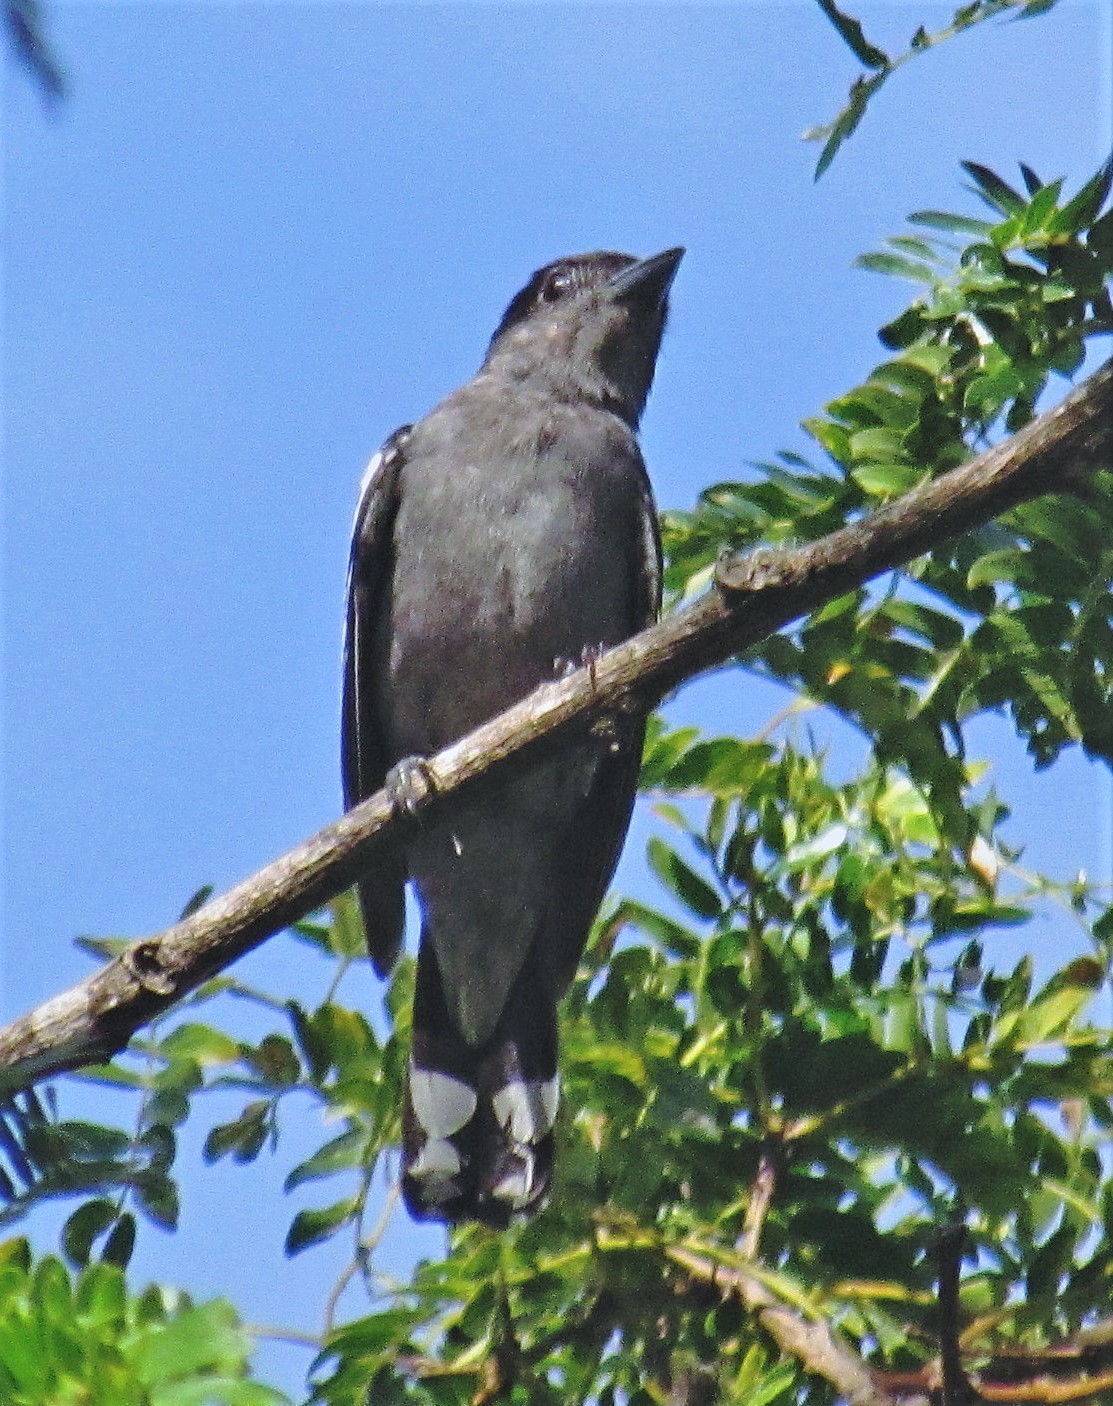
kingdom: Animalia
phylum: Chordata
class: Aves
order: Passeriformes
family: Cotingidae
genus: Pachyramphus
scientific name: Pachyramphus polychopterus
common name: White-winged becard
